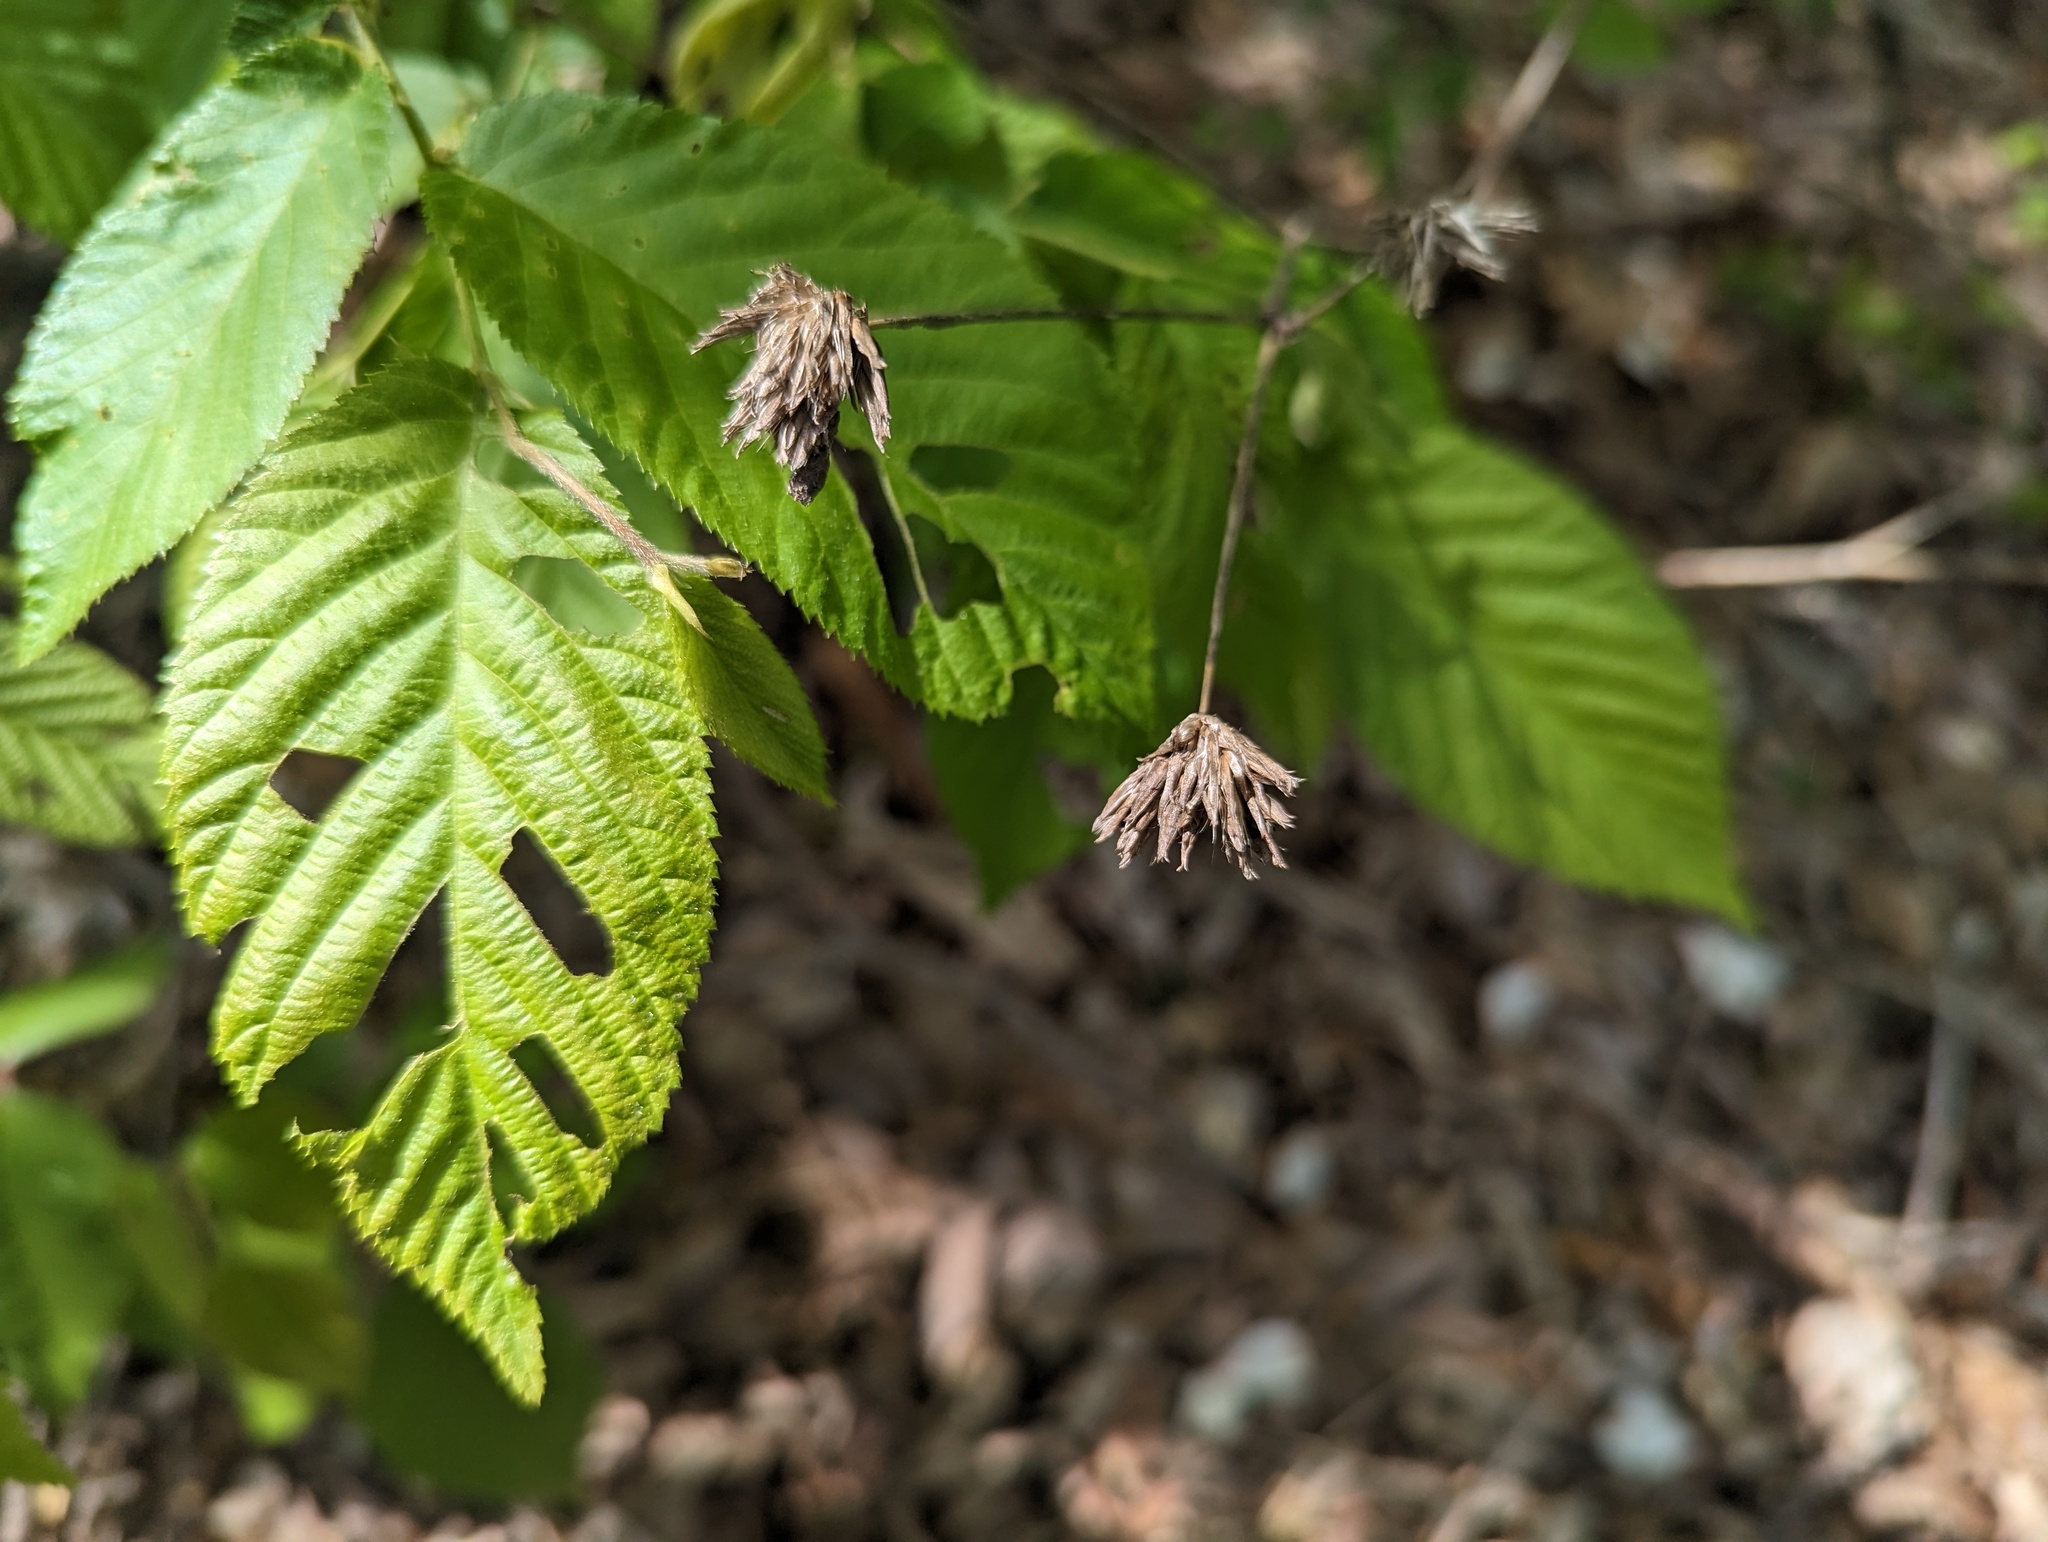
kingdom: Plantae
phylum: Tracheophyta
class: Magnoliopsida
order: Asterales
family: Asteraceae
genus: Elephantopus
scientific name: Elephantopus carolinianus
